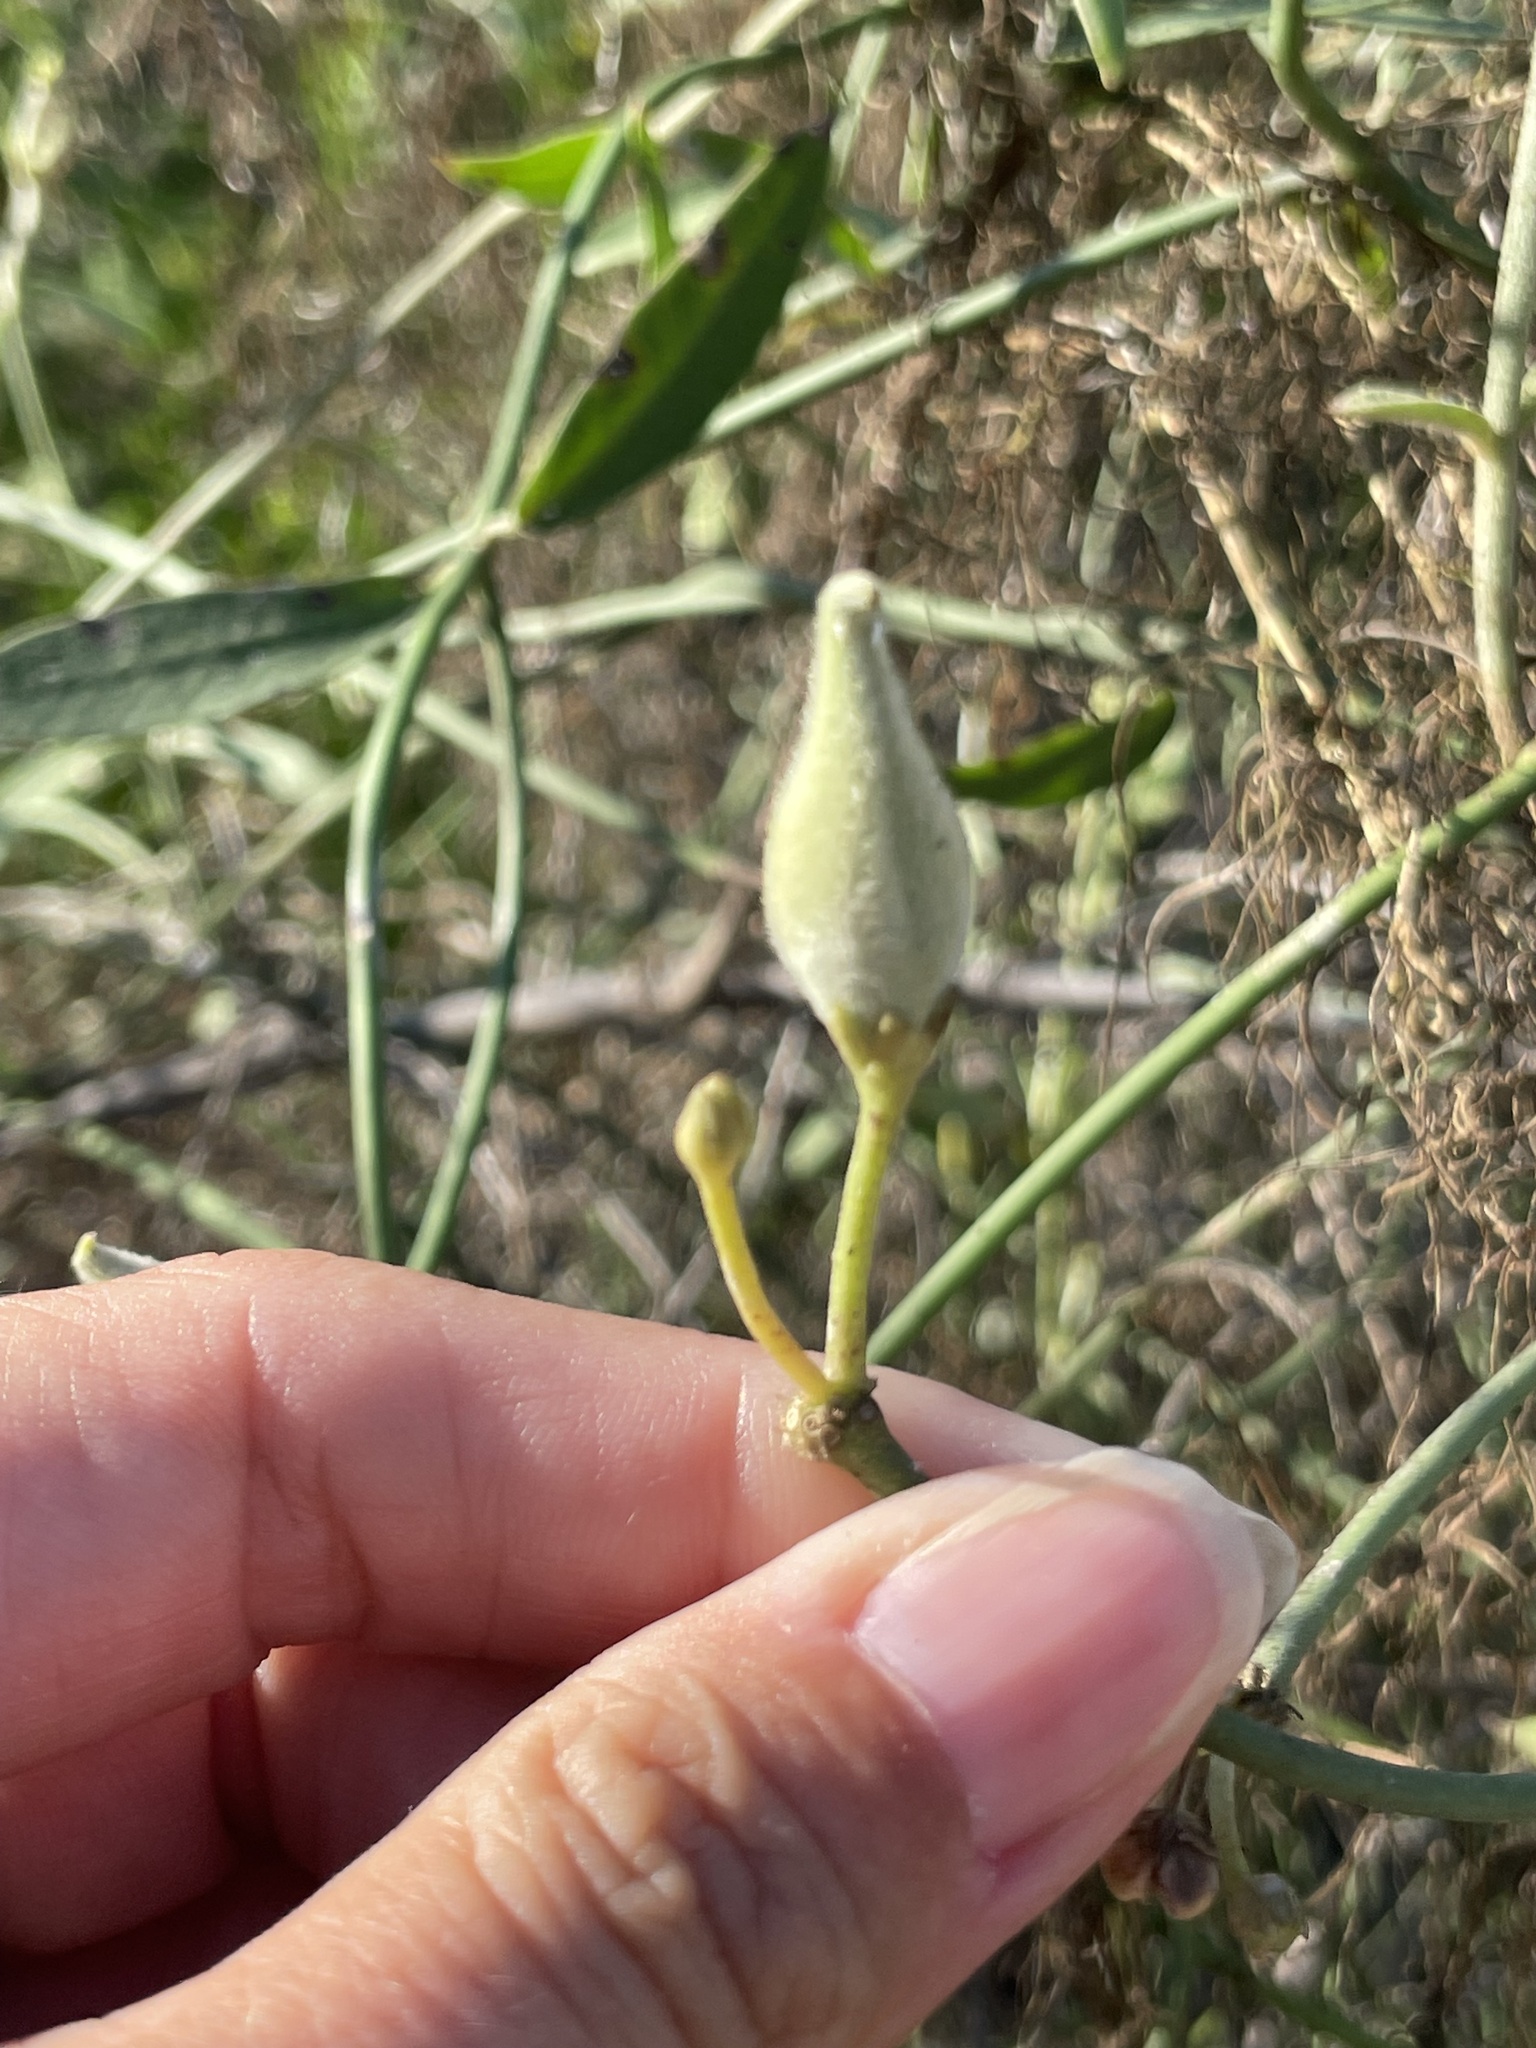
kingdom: Plantae
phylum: Tracheophyta
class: Magnoliopsida
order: Gentianales
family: Apocynaceae
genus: Funastrum
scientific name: Funastrum clausum
